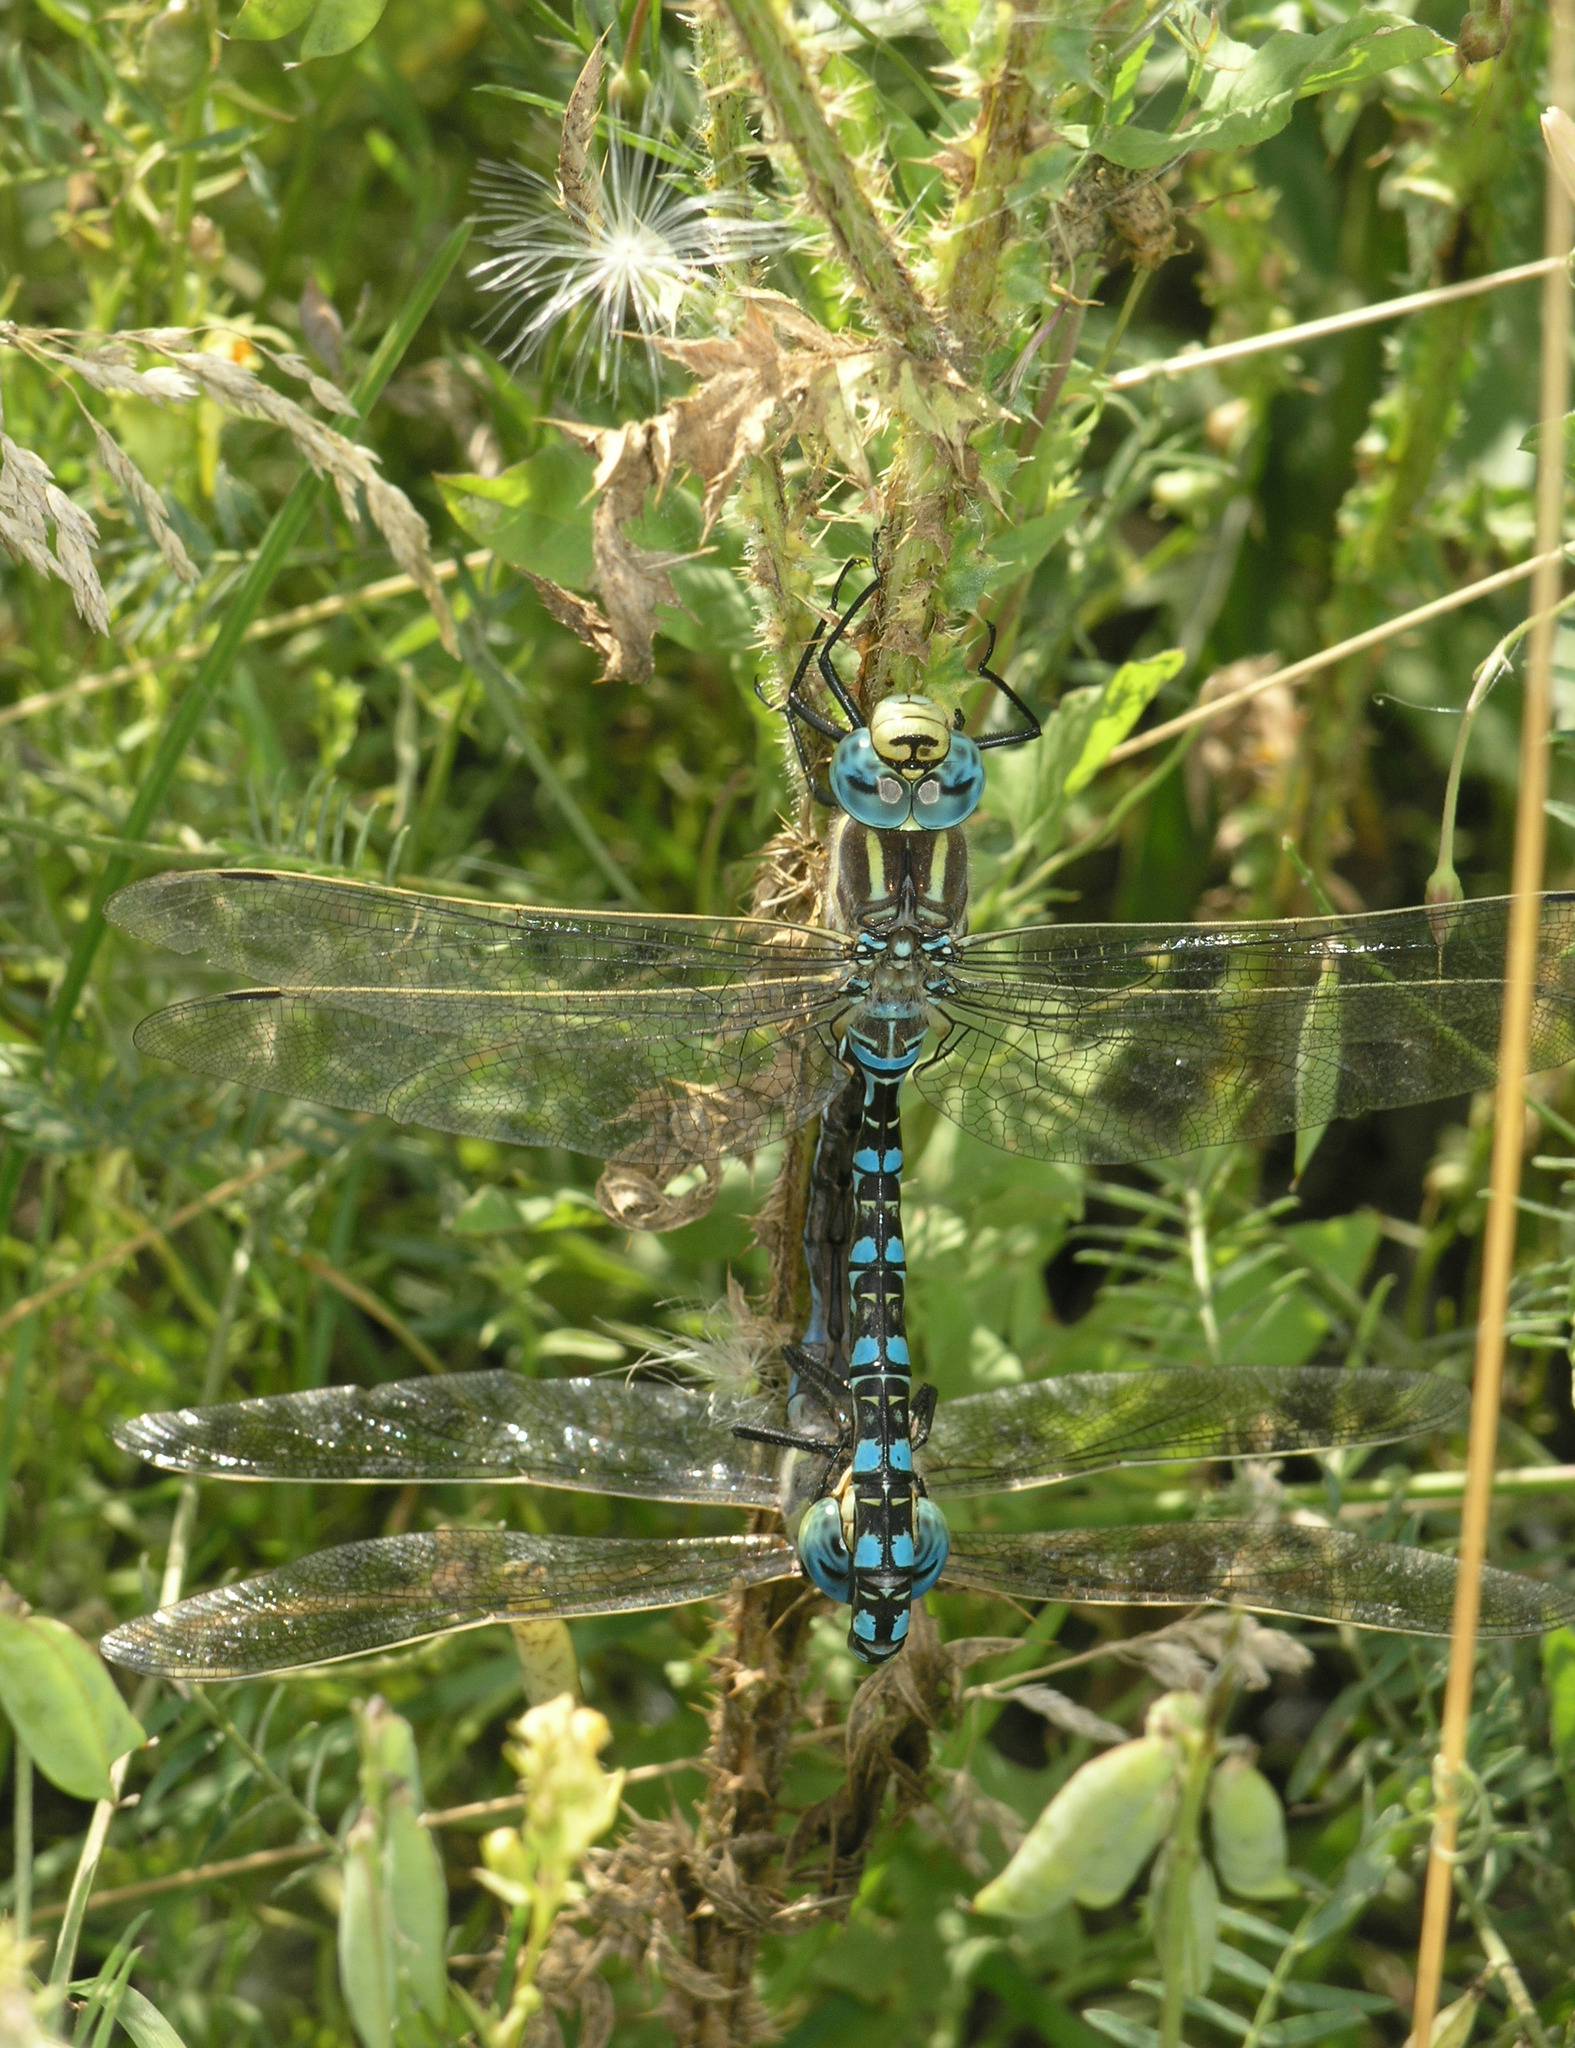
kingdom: Animalia
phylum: Arthropoda
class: Insecta
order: Odonata
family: Aeshnidae
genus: Aeshna
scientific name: Aeshna serrata
